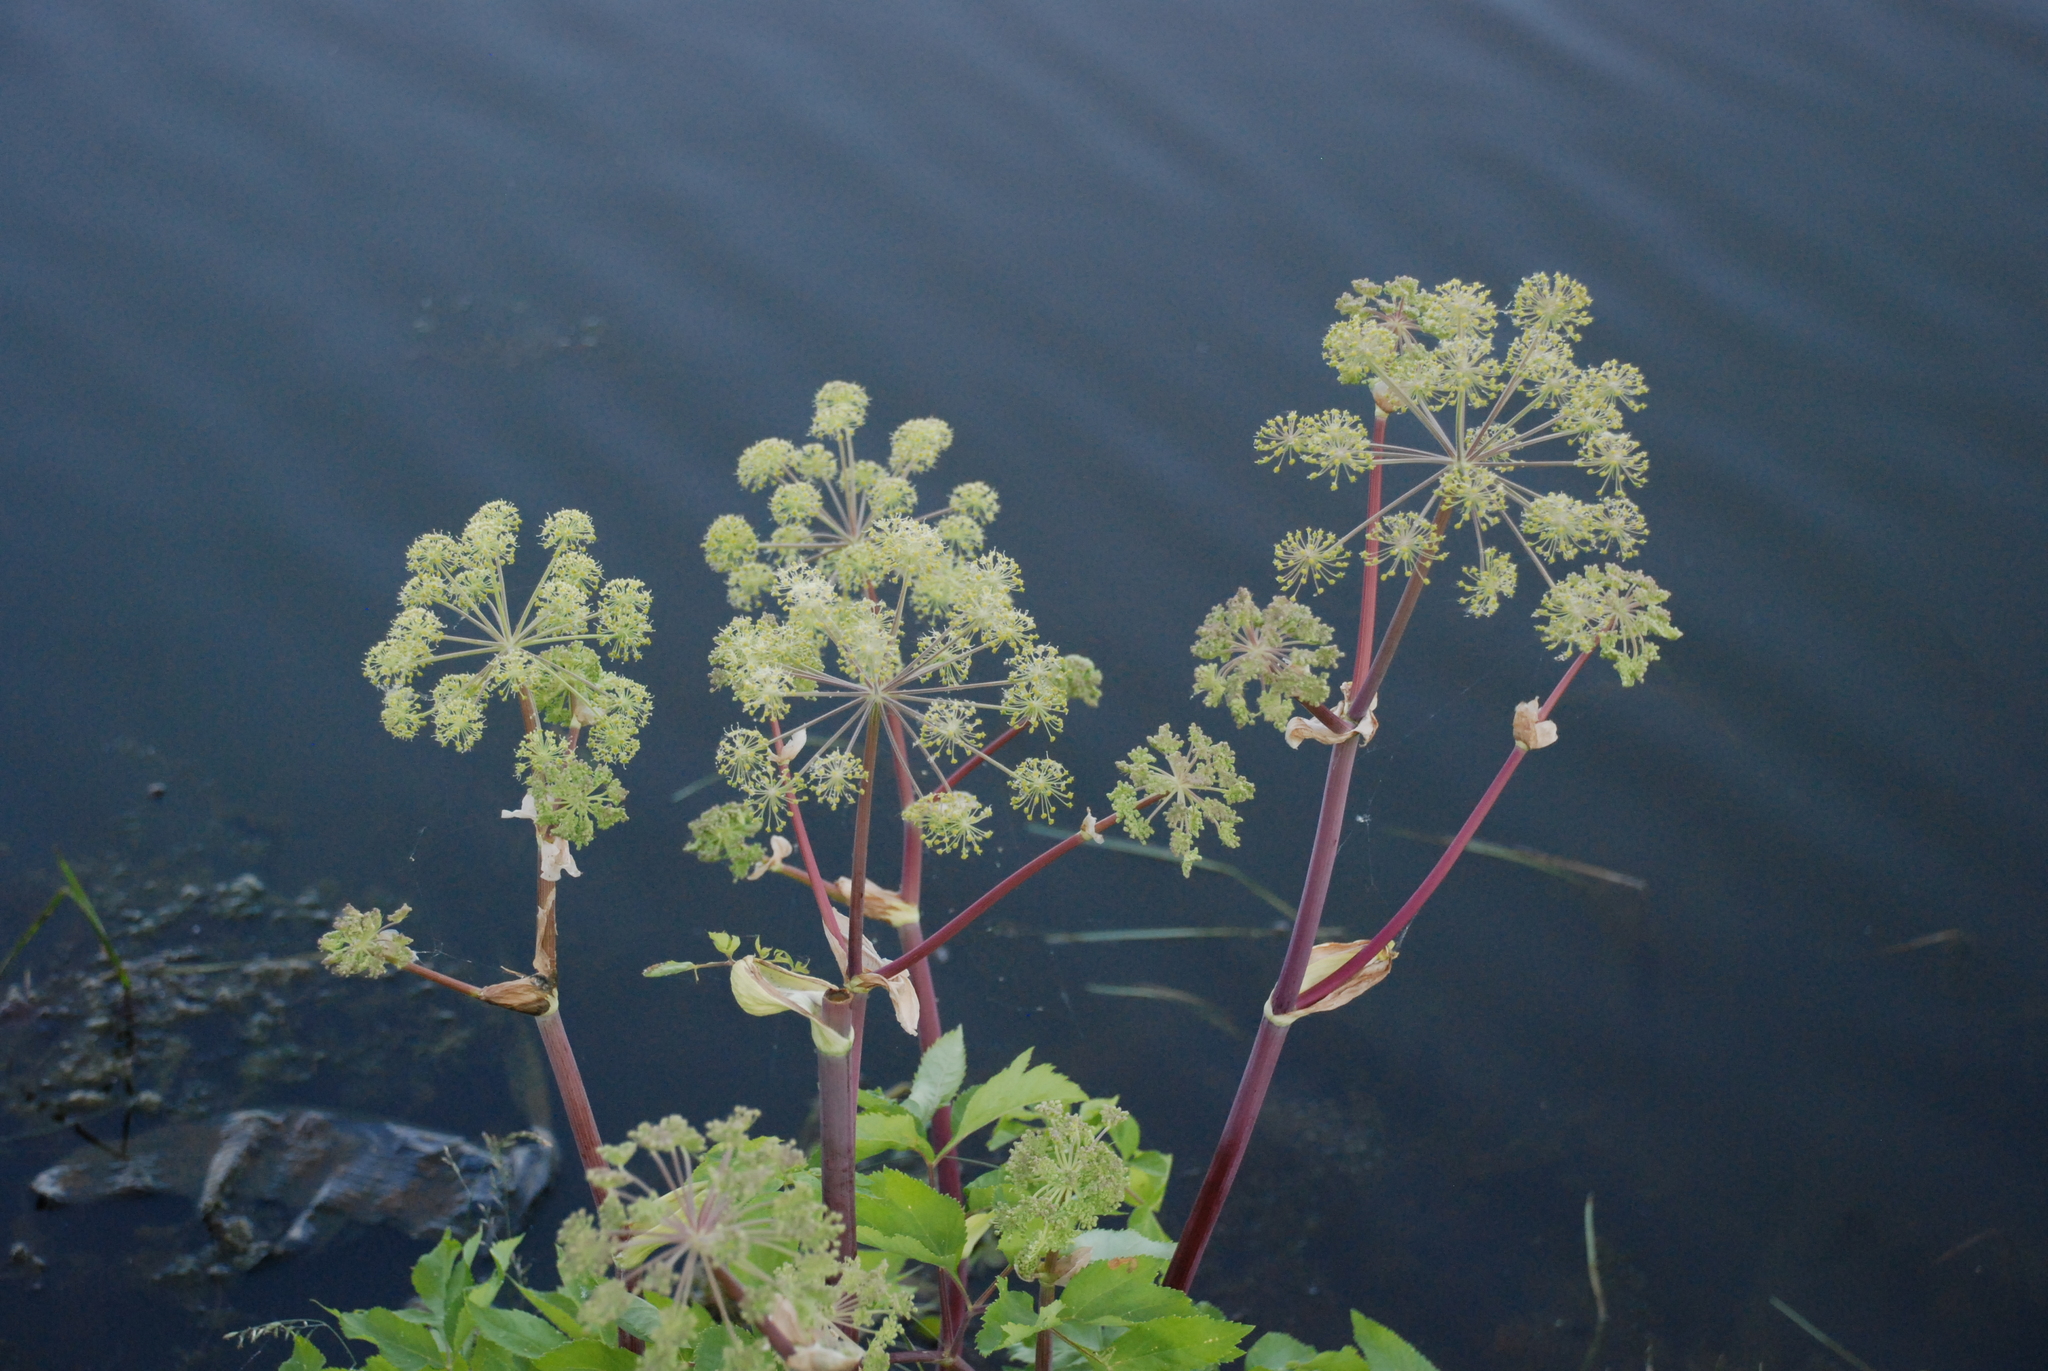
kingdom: Plantae
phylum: Tracheophyta
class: Magnoliopsida
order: Apiales
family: Apiaceae
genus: Angelica
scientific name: Angelica archangelica
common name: Garden angelica
